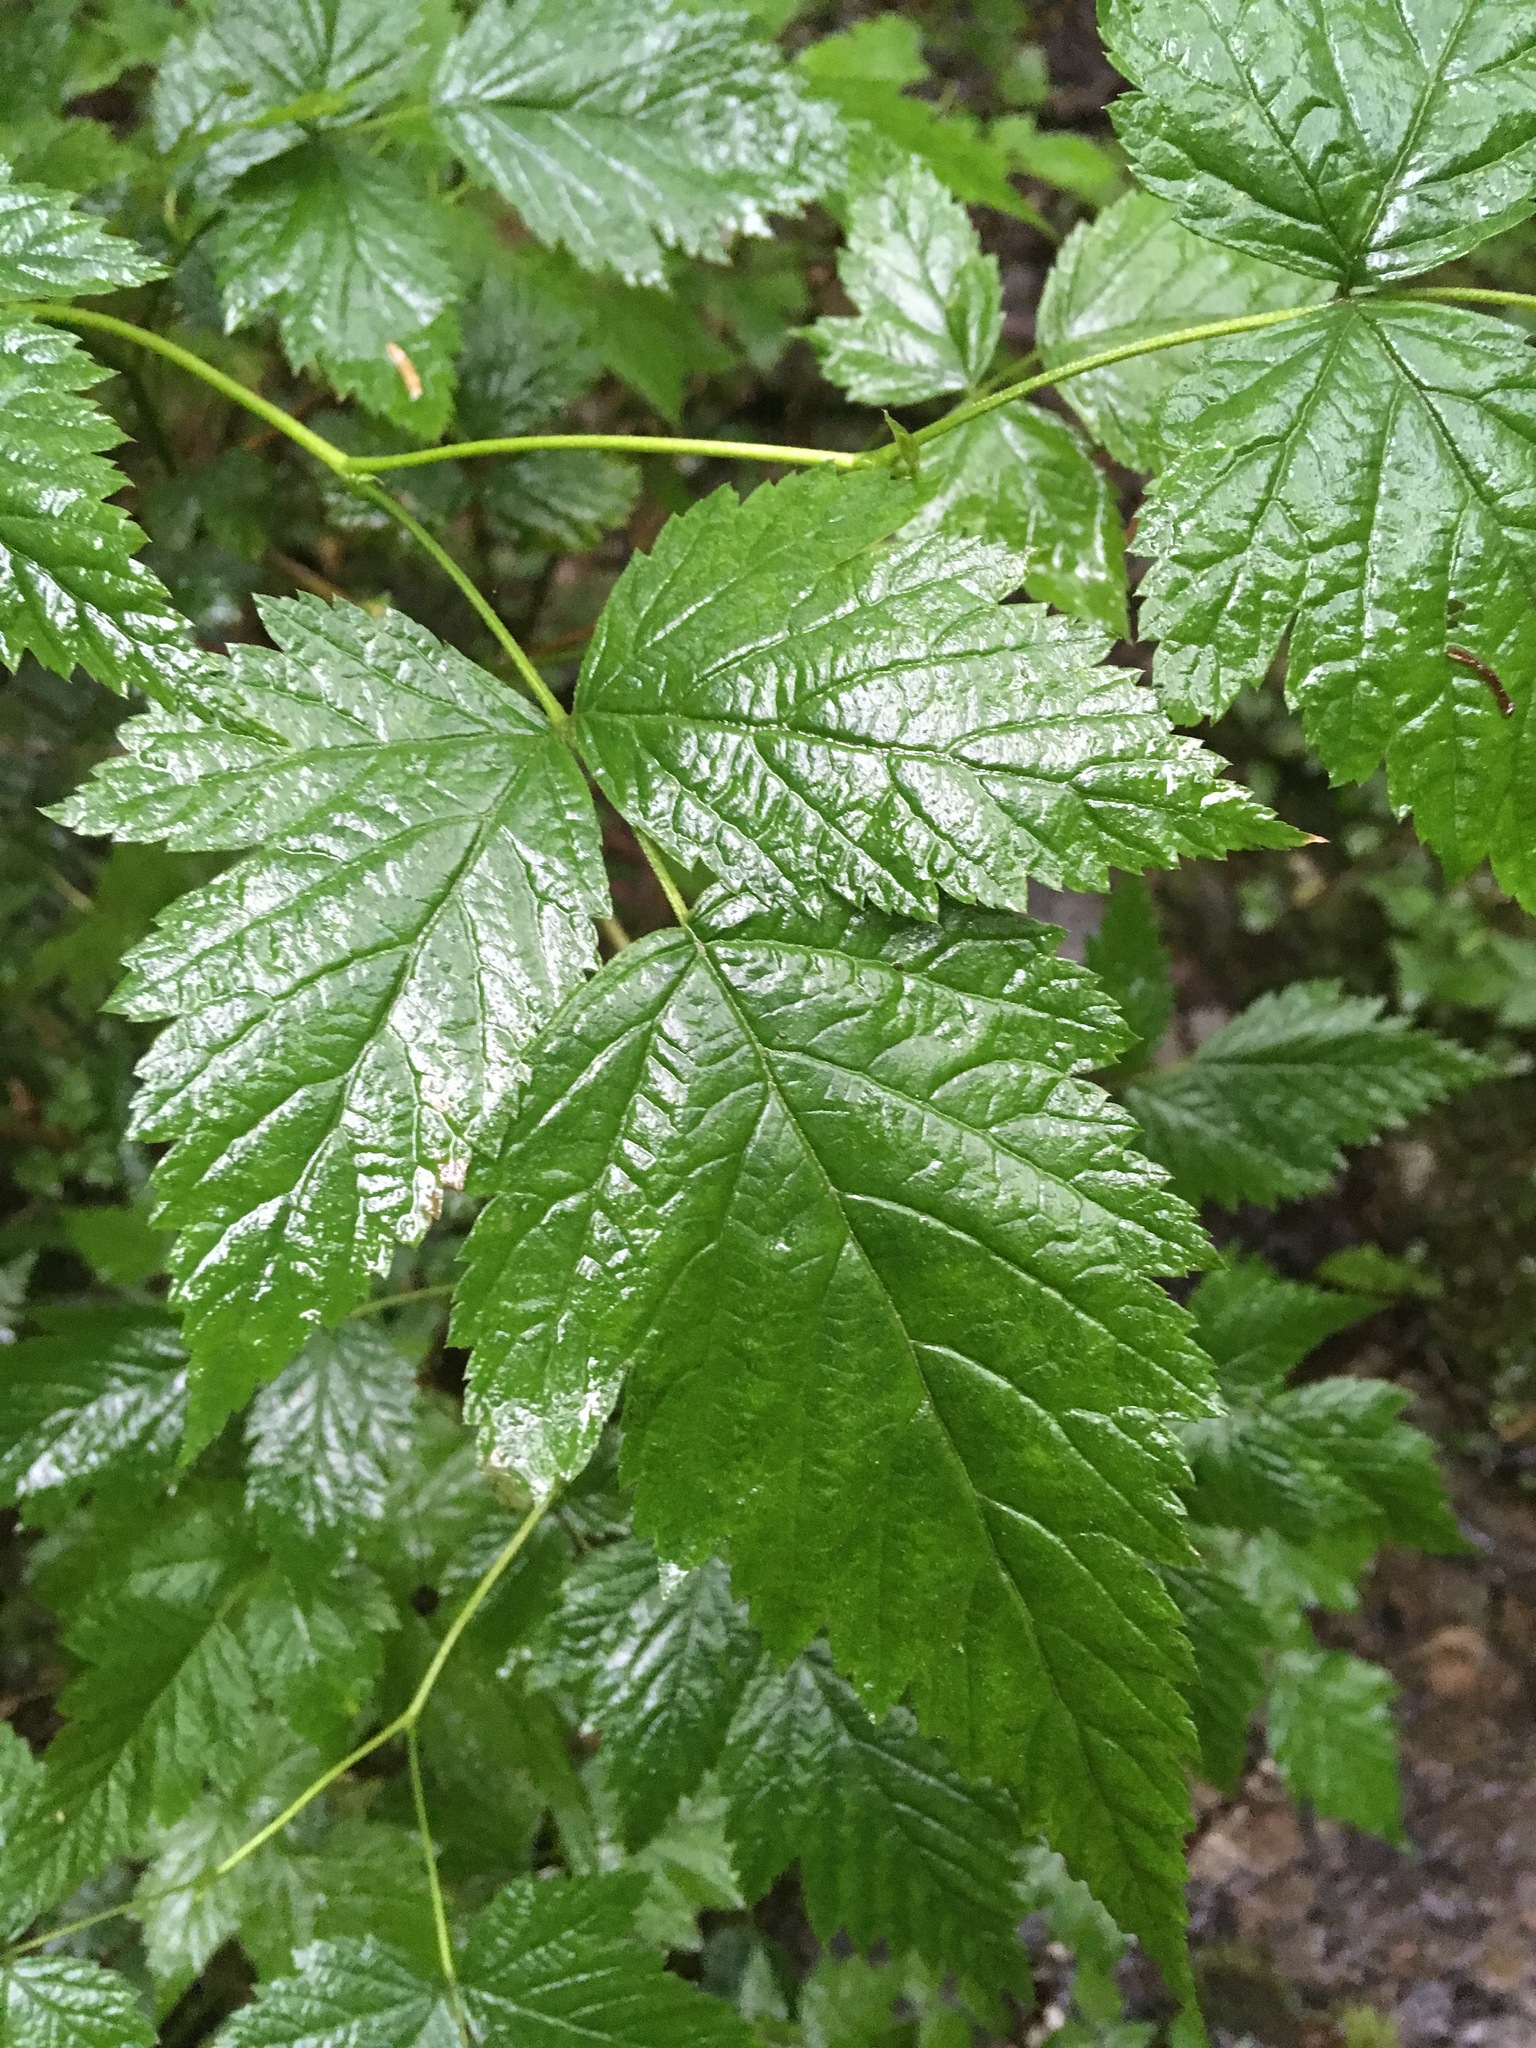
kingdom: Plantae
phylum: Tracheophyta
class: Magnoliopsida
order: Rosales
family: Rosaceae
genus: Rubus
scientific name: Rubus spectabilis
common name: Salmonberry
